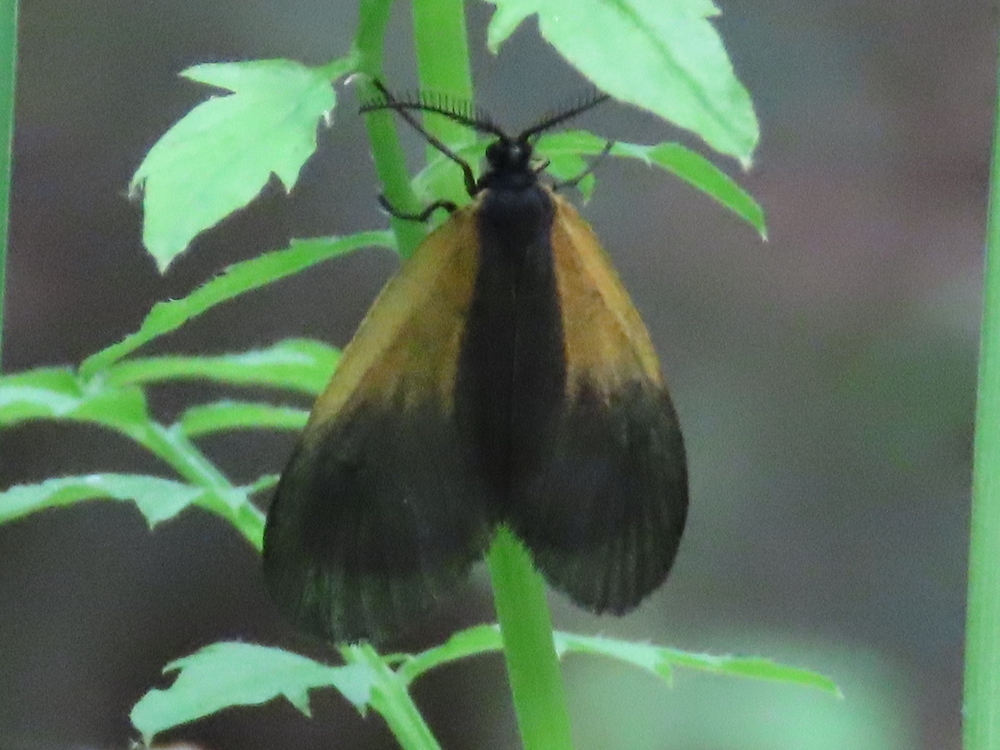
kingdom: Animalia
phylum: Arthropoda
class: Insecta
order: Lepidoptera
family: Zygaenidae
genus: Malthaca
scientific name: Malthaca dimidiata
